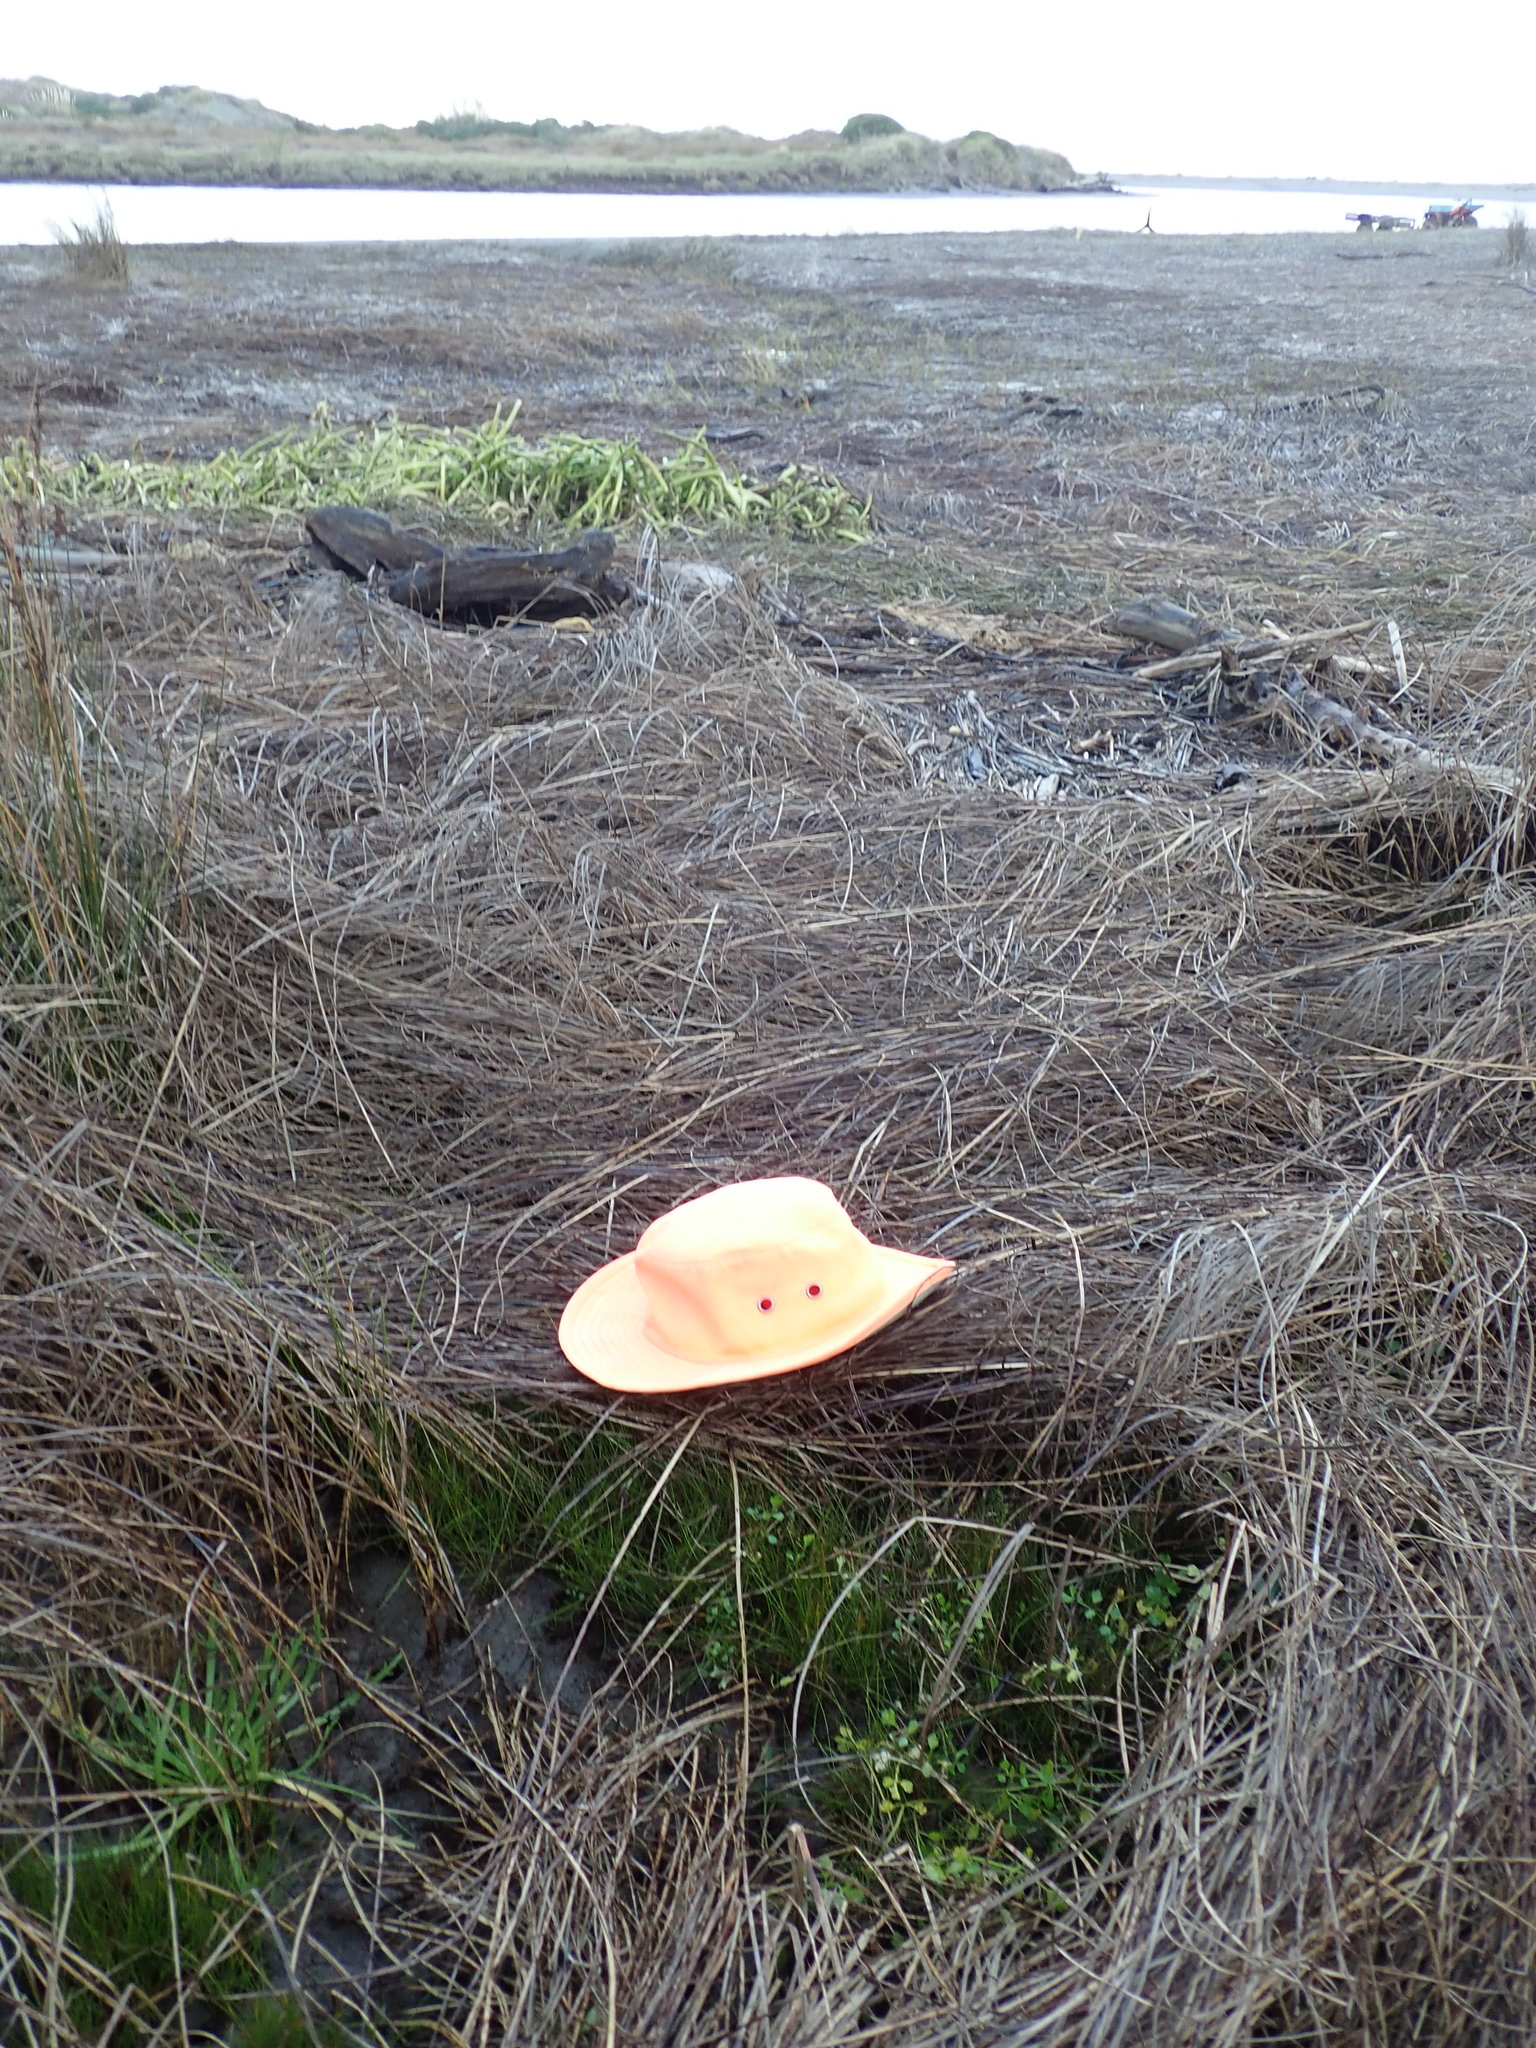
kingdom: Plantae
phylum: Tracheophyta
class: Magnoliopsida
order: Apiales
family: Apiaceae
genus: Apium
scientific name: Apium prostratum
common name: Prostrate marshwort
